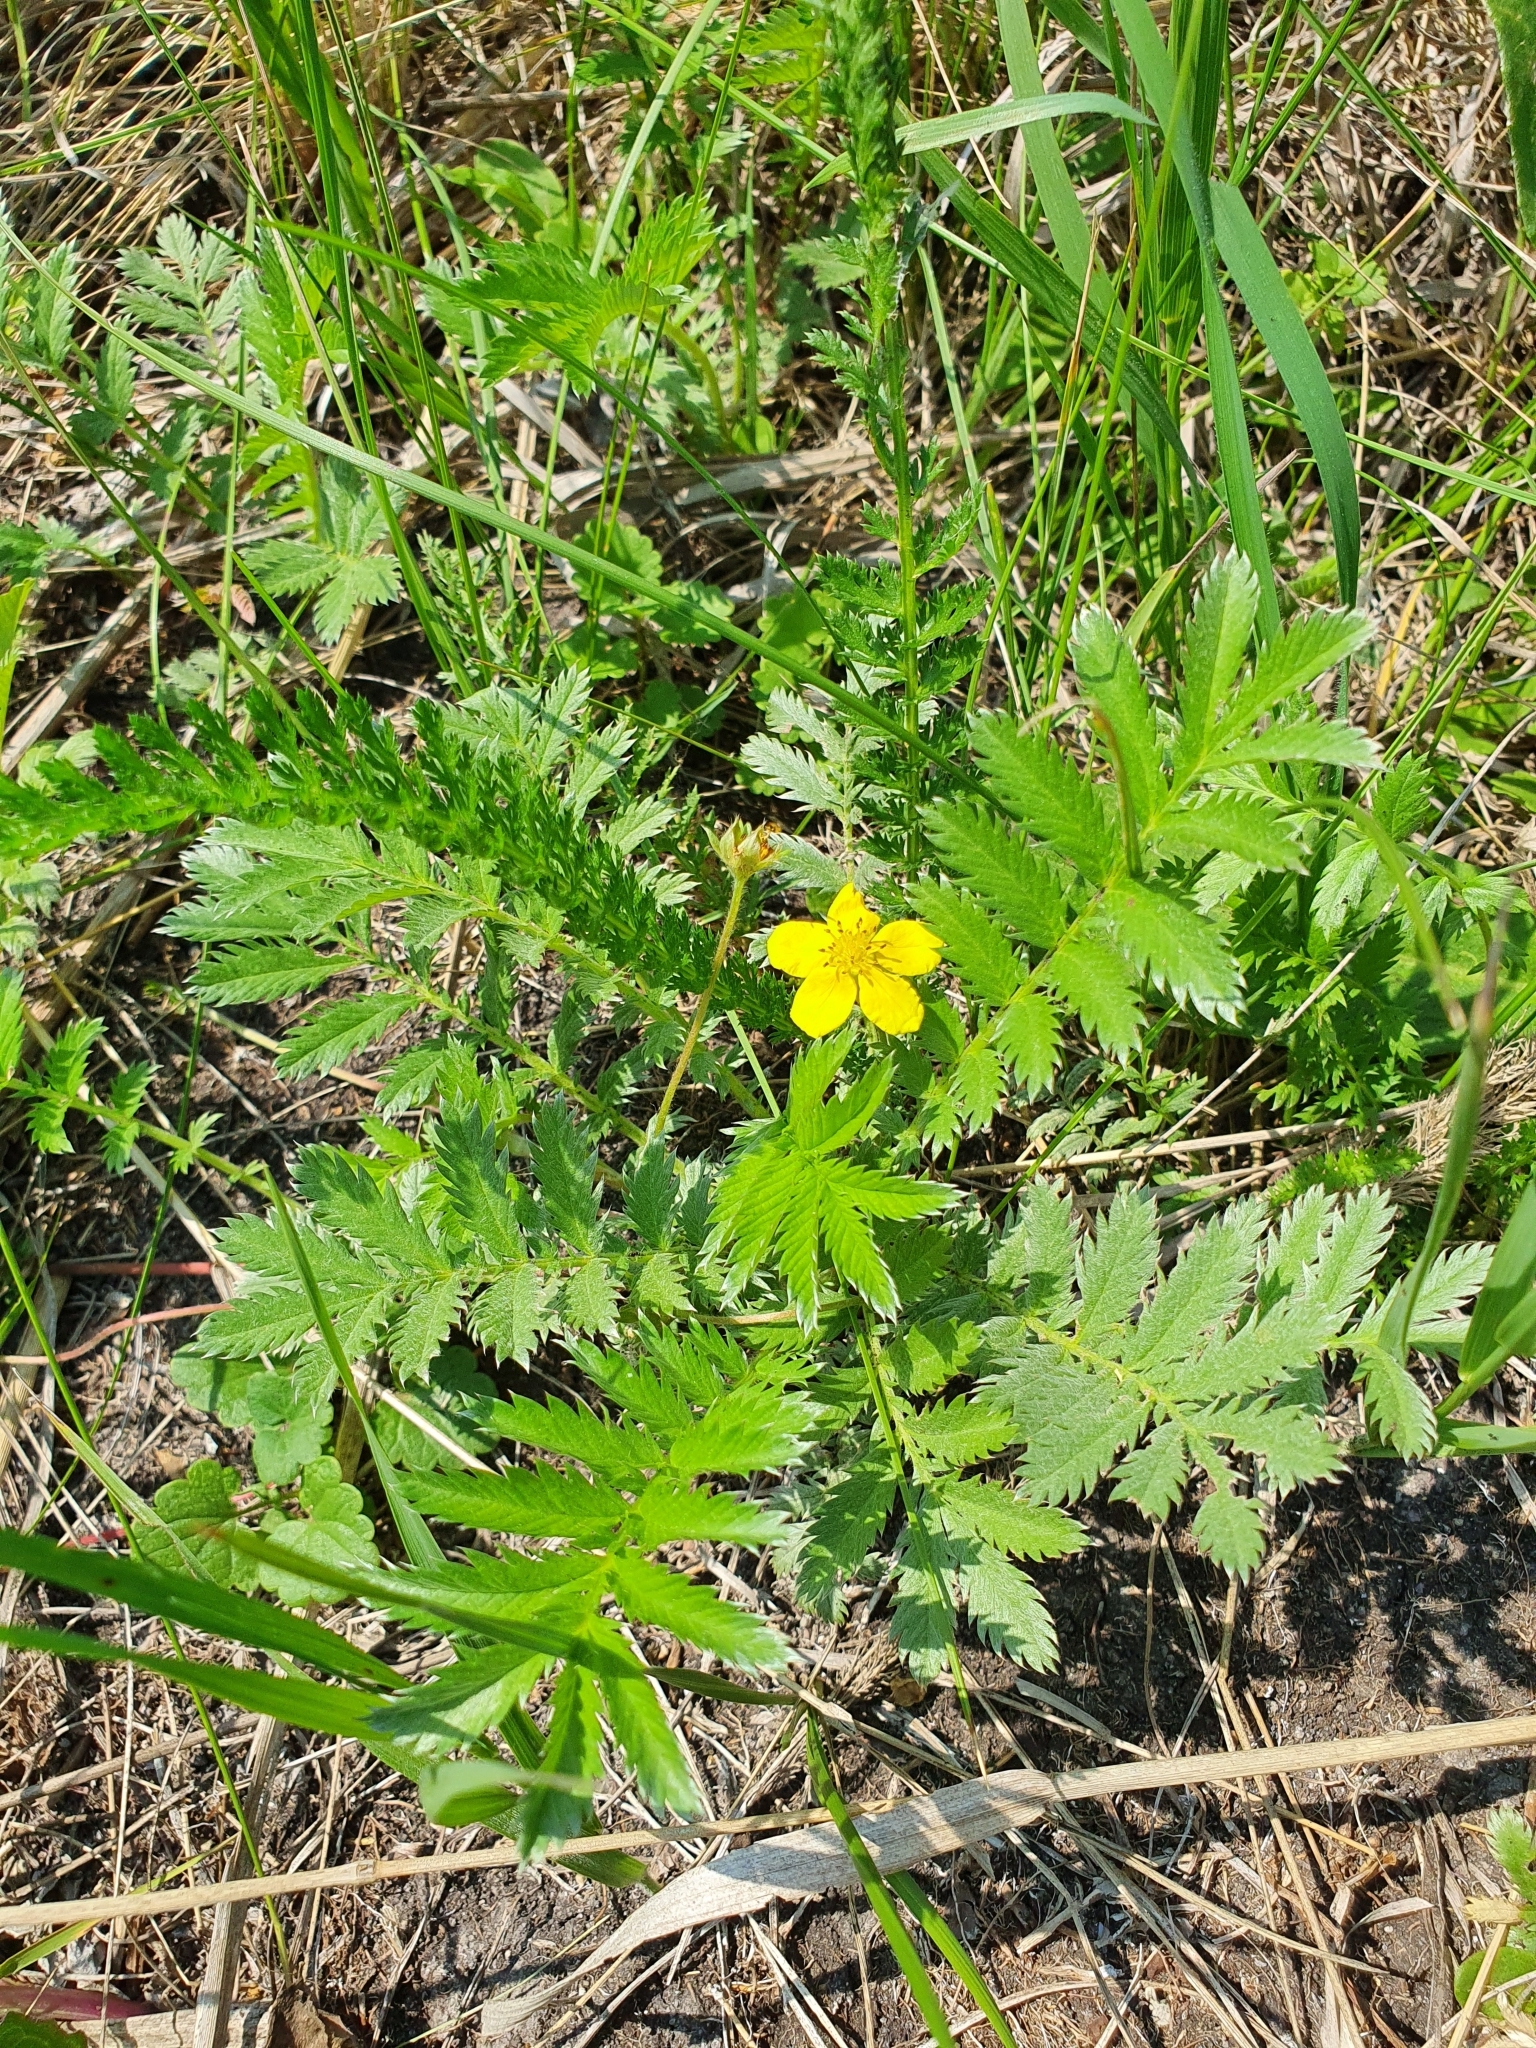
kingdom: Plantae
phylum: Tracheophyta
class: Magnoliopsida
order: Rosales
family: Rosaceae
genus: Argentina
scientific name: Argentina anserina
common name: Common silverweed
